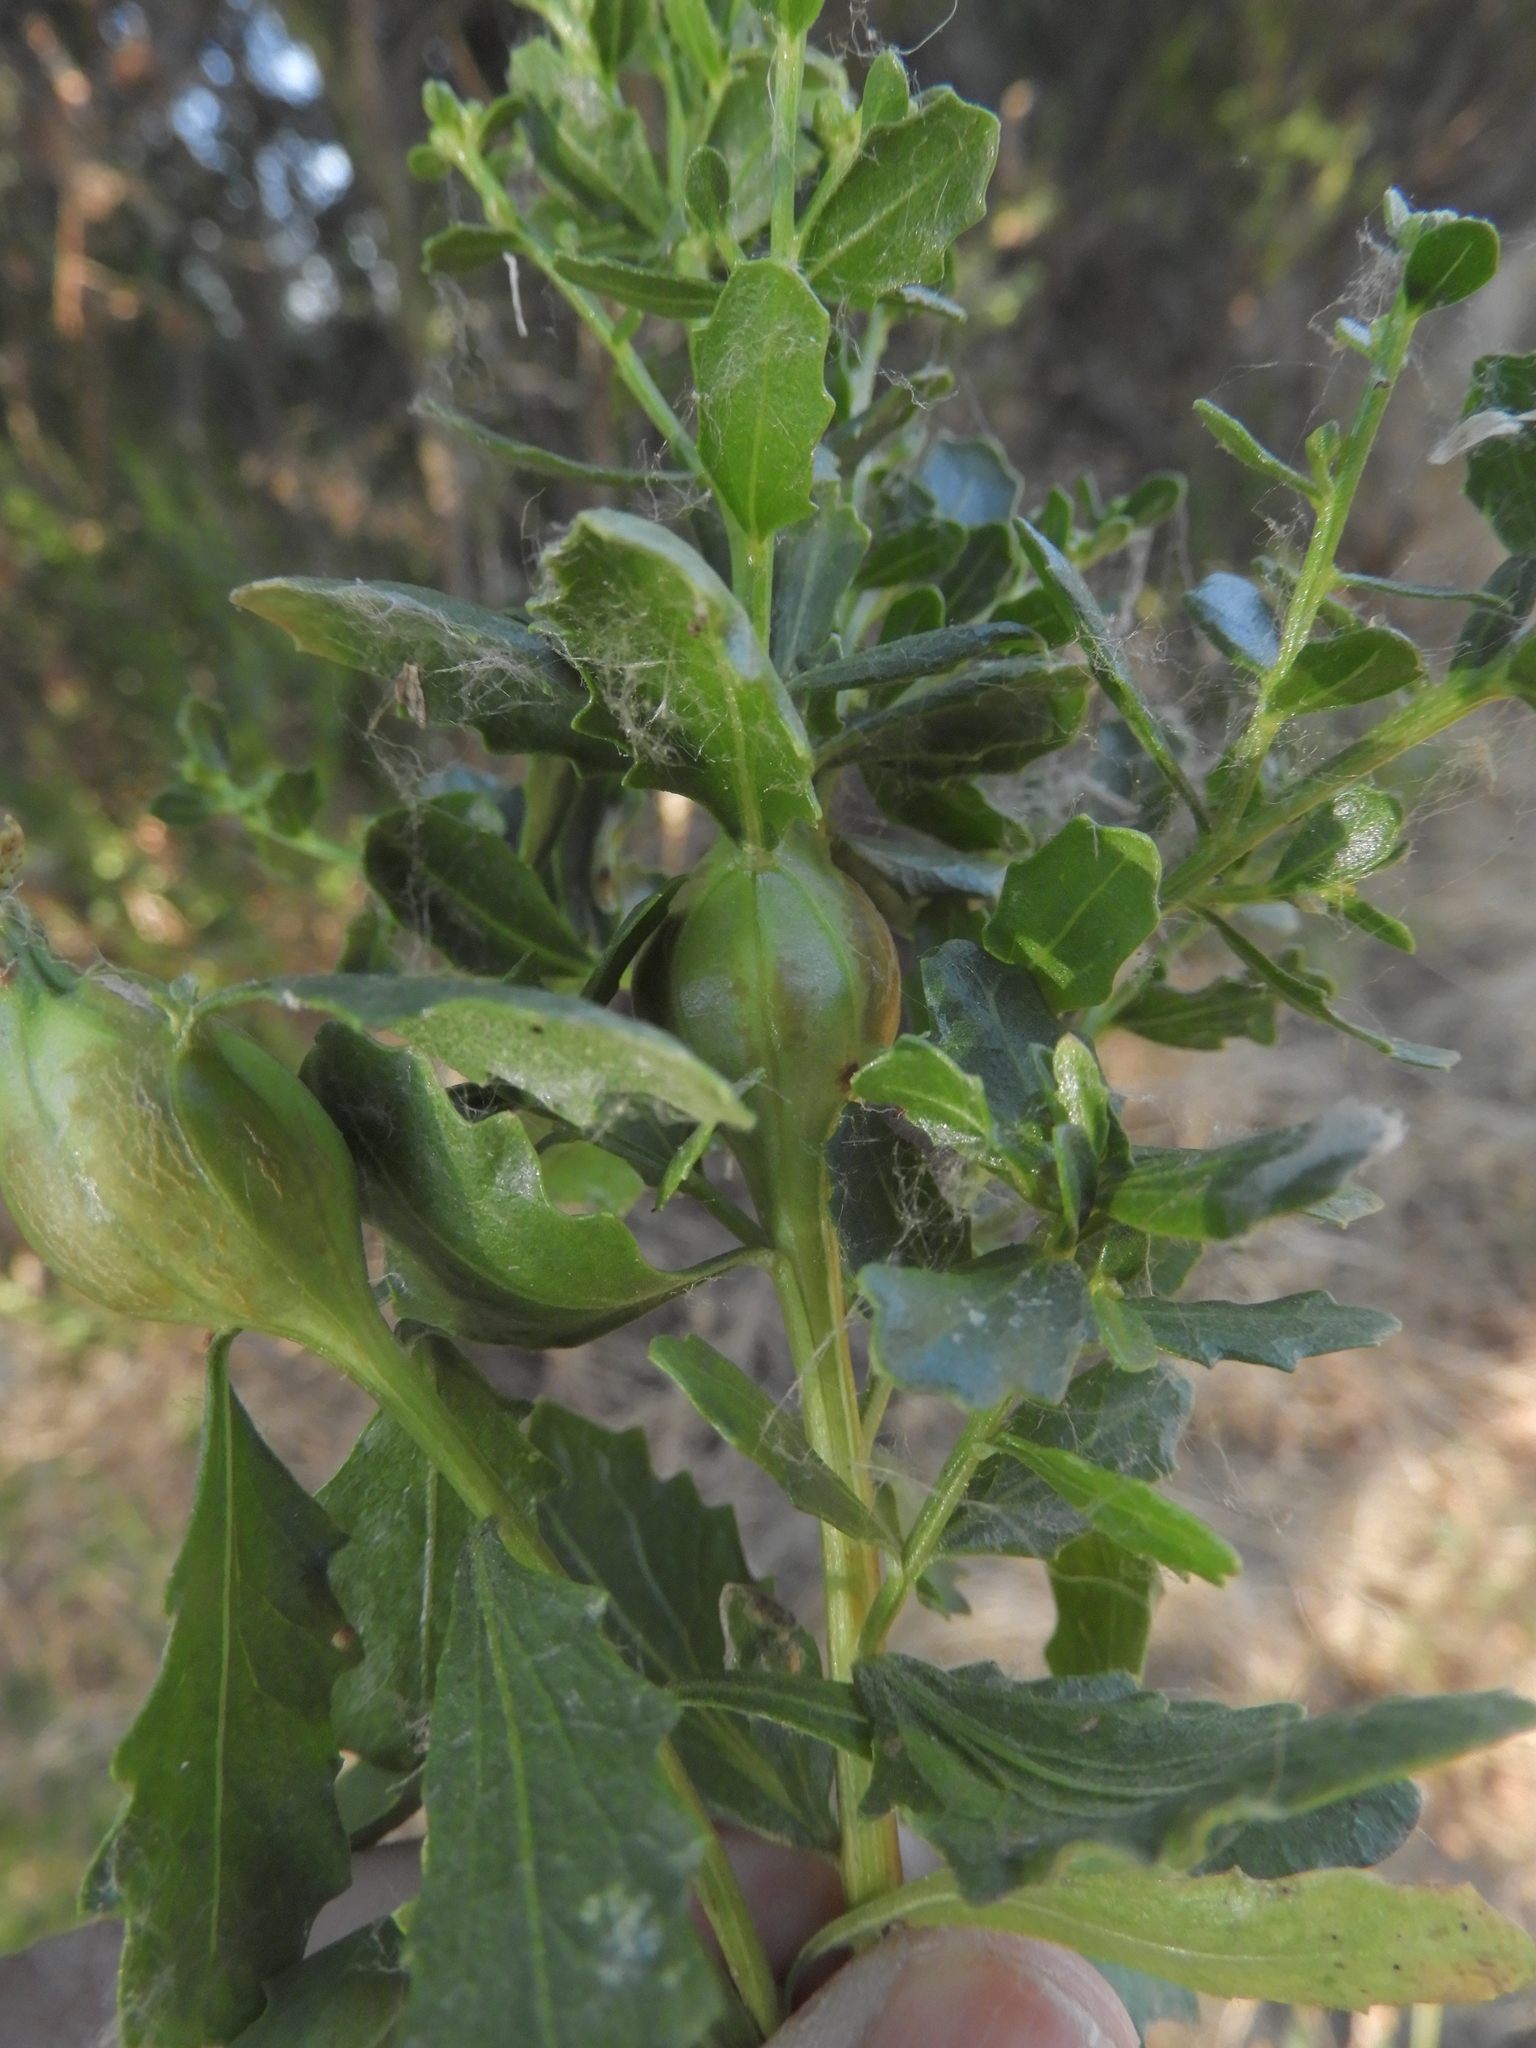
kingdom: Animalia
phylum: Arthropoda
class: Insecta
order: Lepidoptera
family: Gelechiidae
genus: Gnorimoschema
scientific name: Gnorimoschema baccharisella
